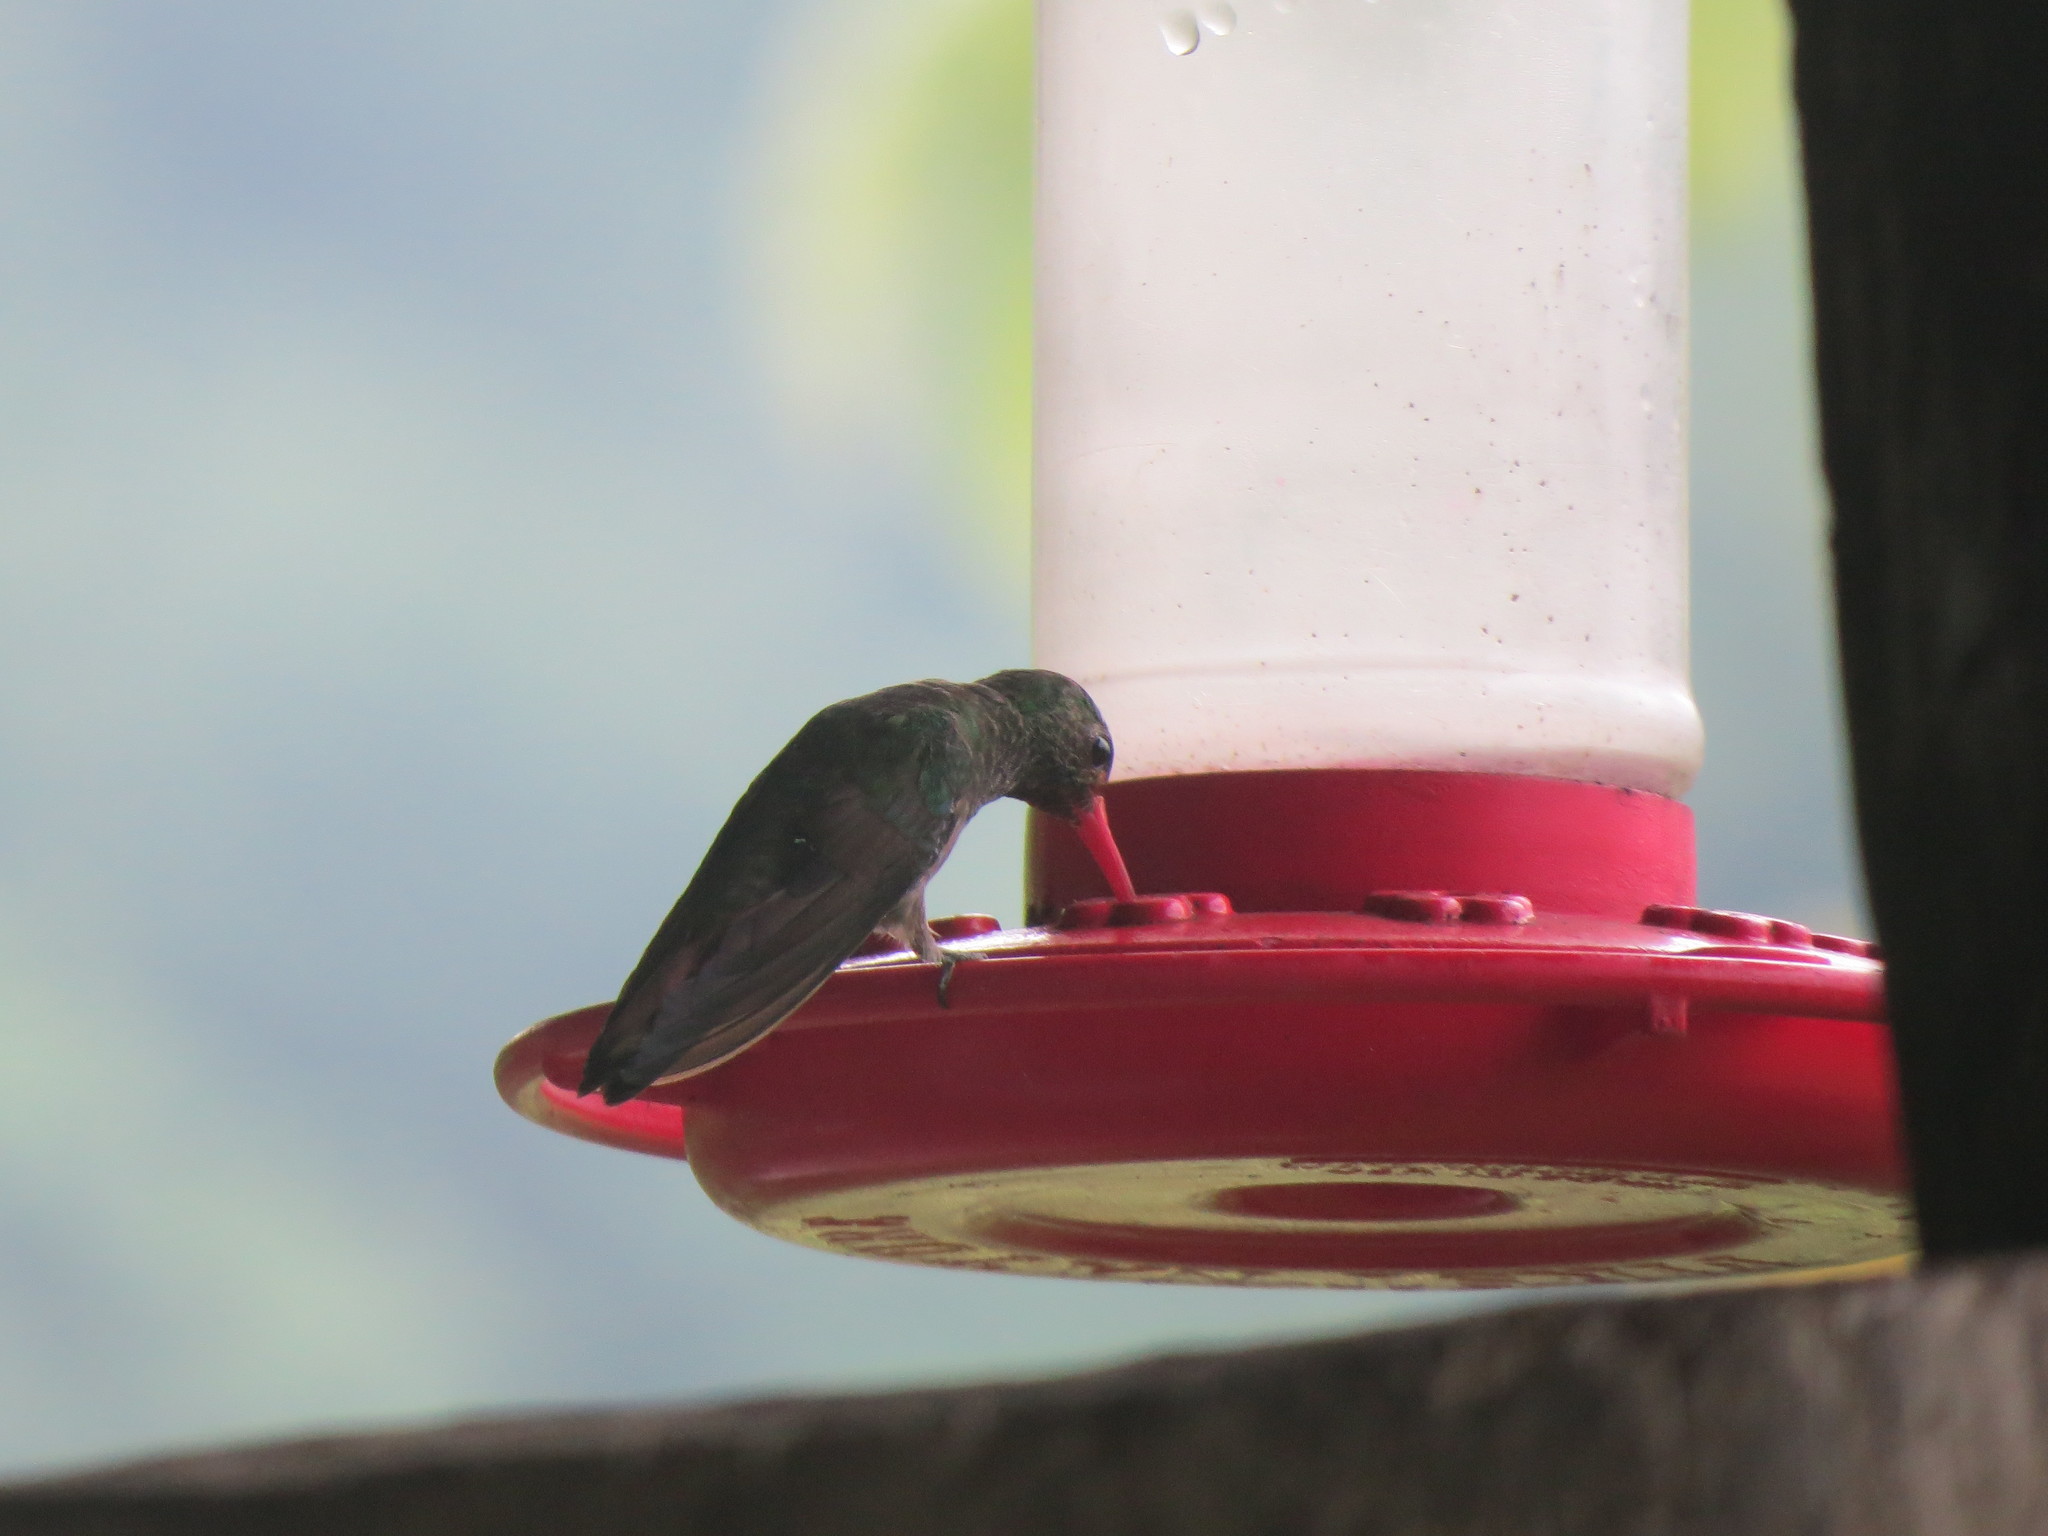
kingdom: Animalia
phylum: Chordata
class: Aves
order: Apodiformes
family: Trochilidae
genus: Amazilia
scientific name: Amazilia tzacatl
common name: Rufous-tailed hummingbird
